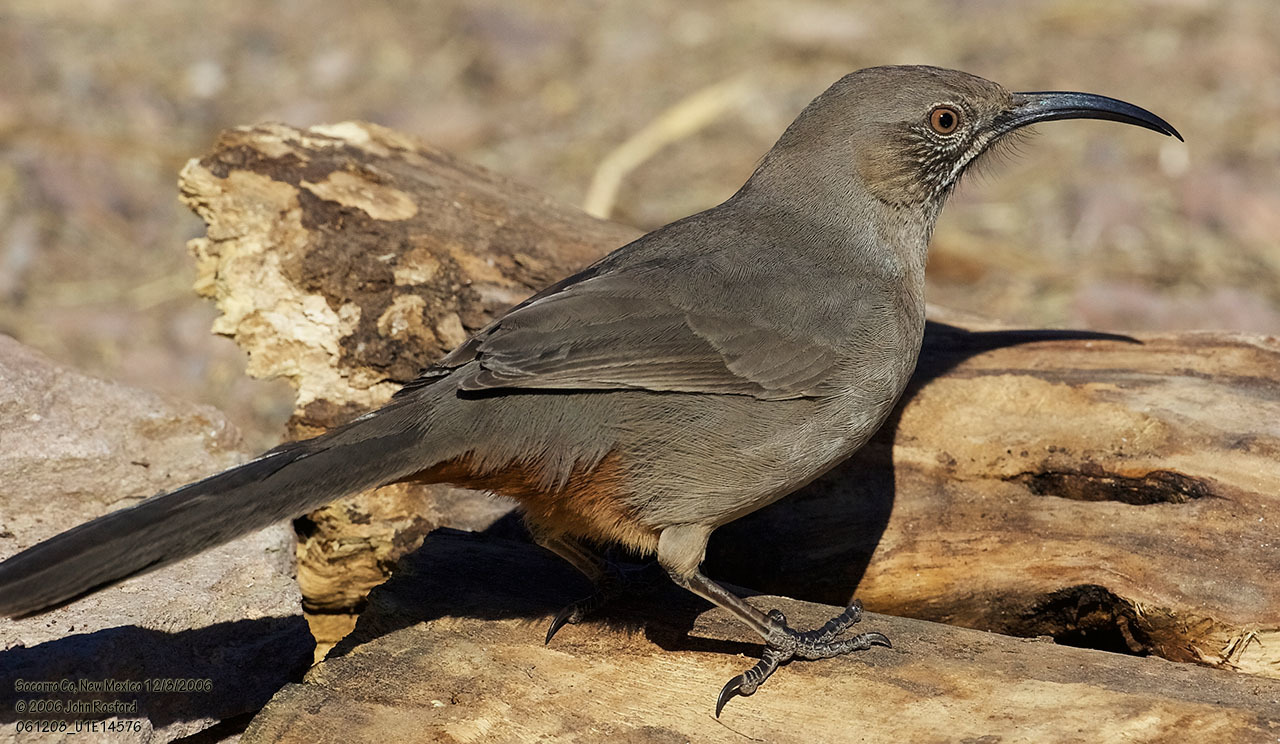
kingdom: Animalia
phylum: Chordata
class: Aves
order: Passeriformes
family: Mimidae
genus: Toxostoma
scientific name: Toxostoma crissale
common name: Crissal thrasher
